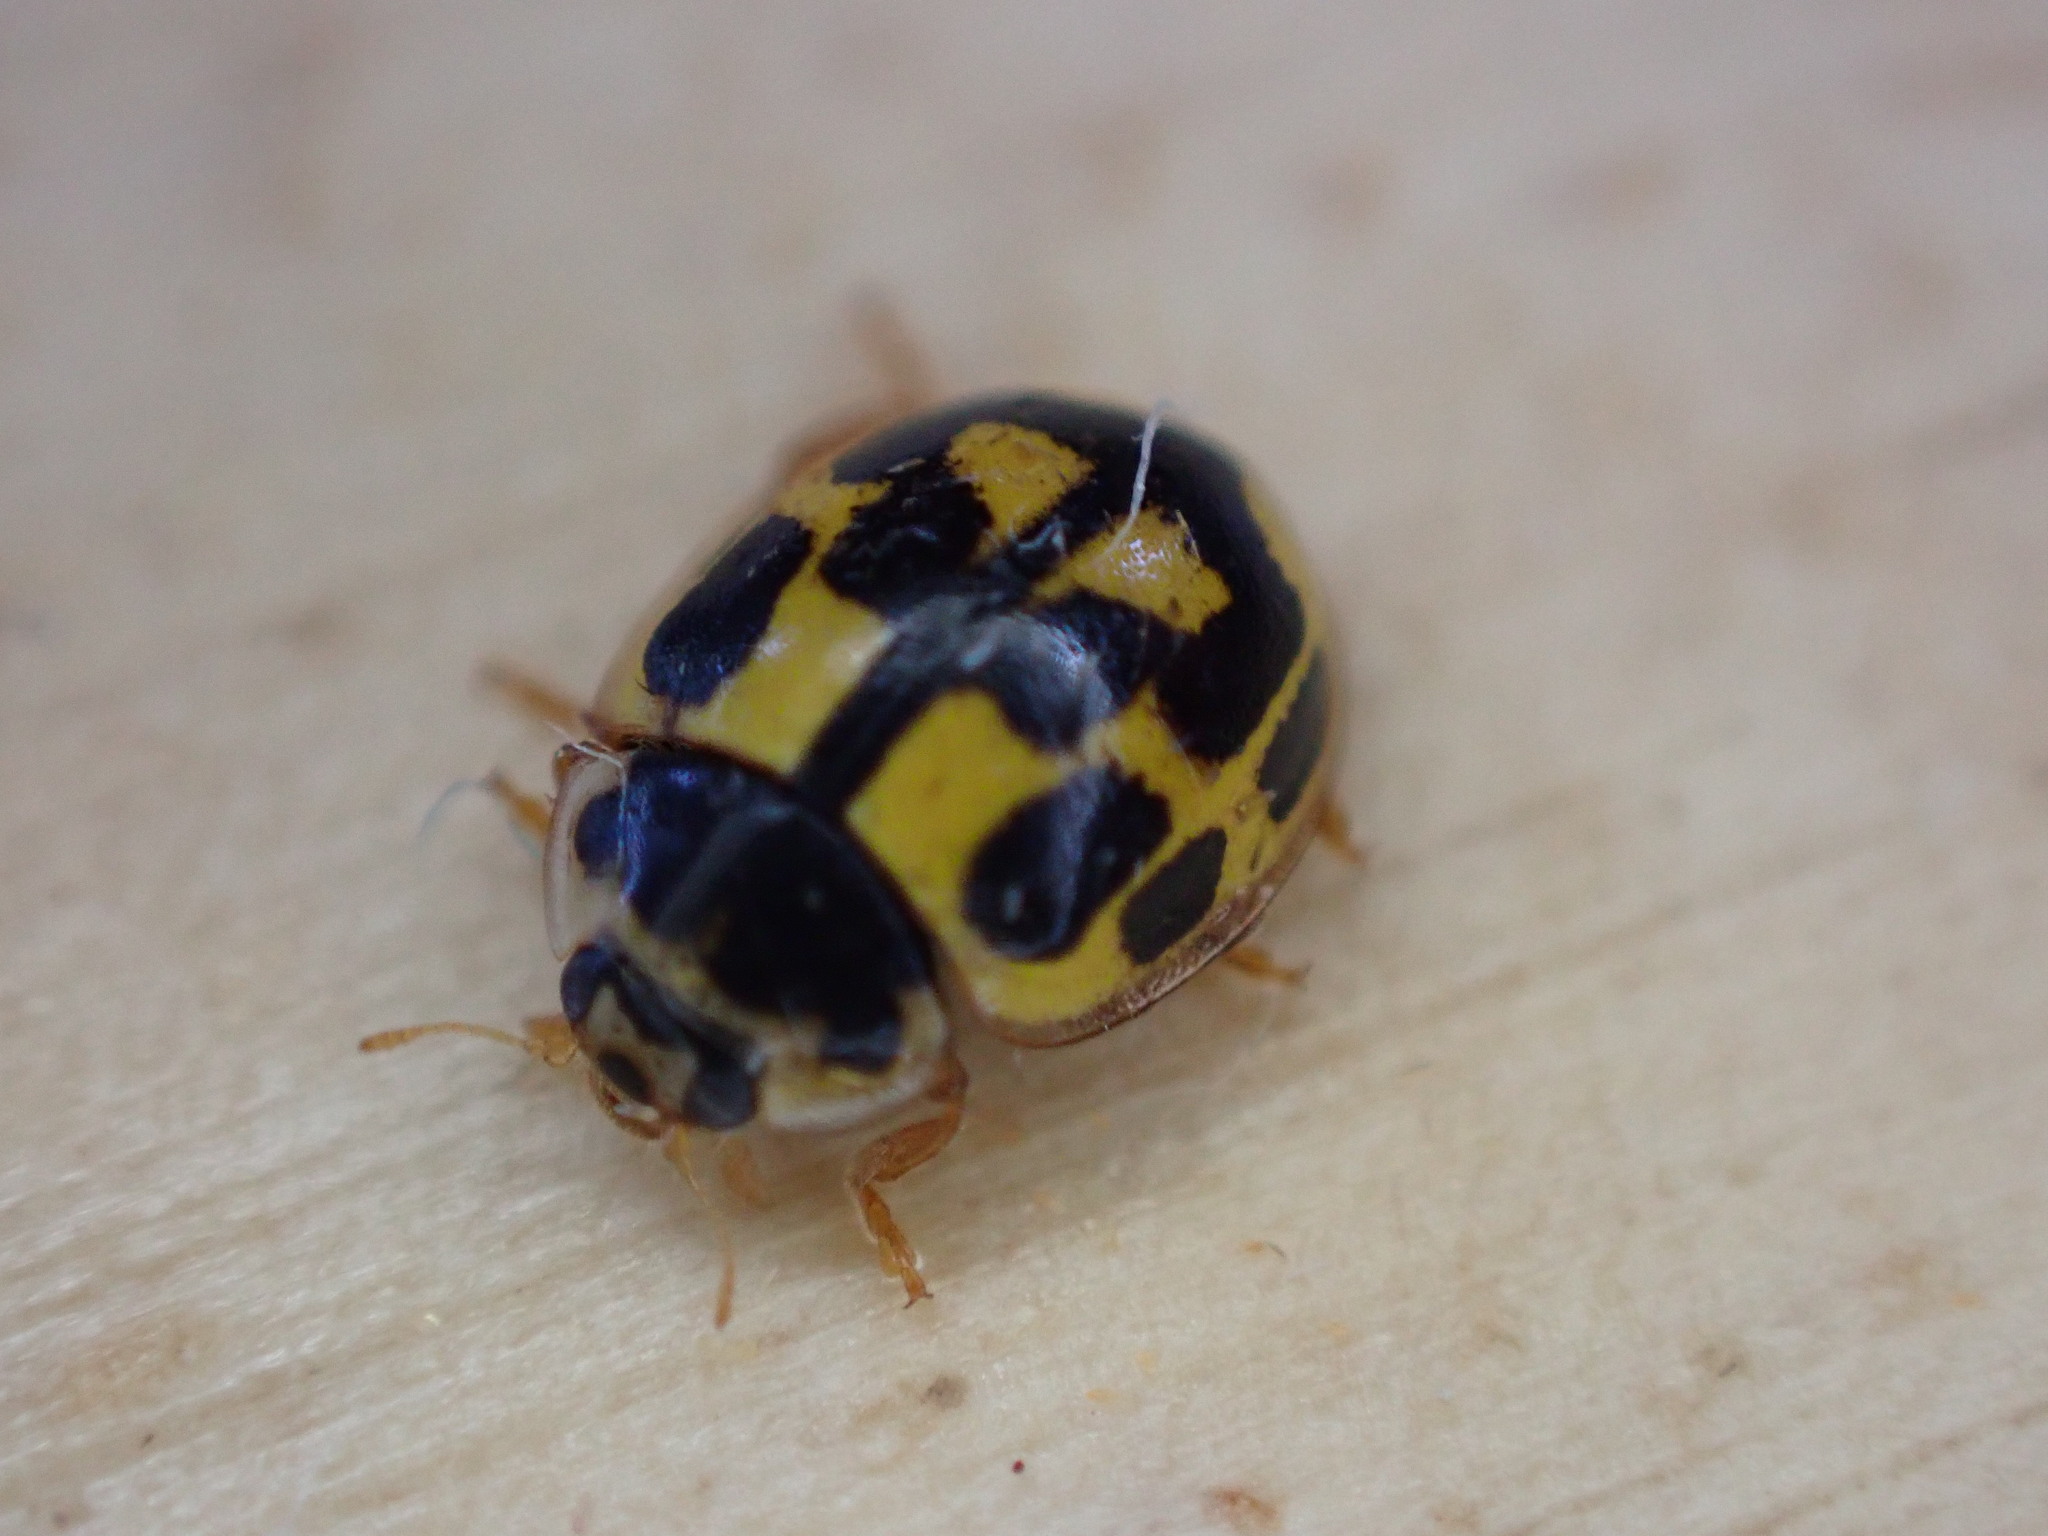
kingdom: Animalia
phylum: Arthropoda
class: Insecta
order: Coleoptera
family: Coccinellidae
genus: Propylaea
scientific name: Propylaea quatuordecimpunctata
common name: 14-spotted ladybird beetle
